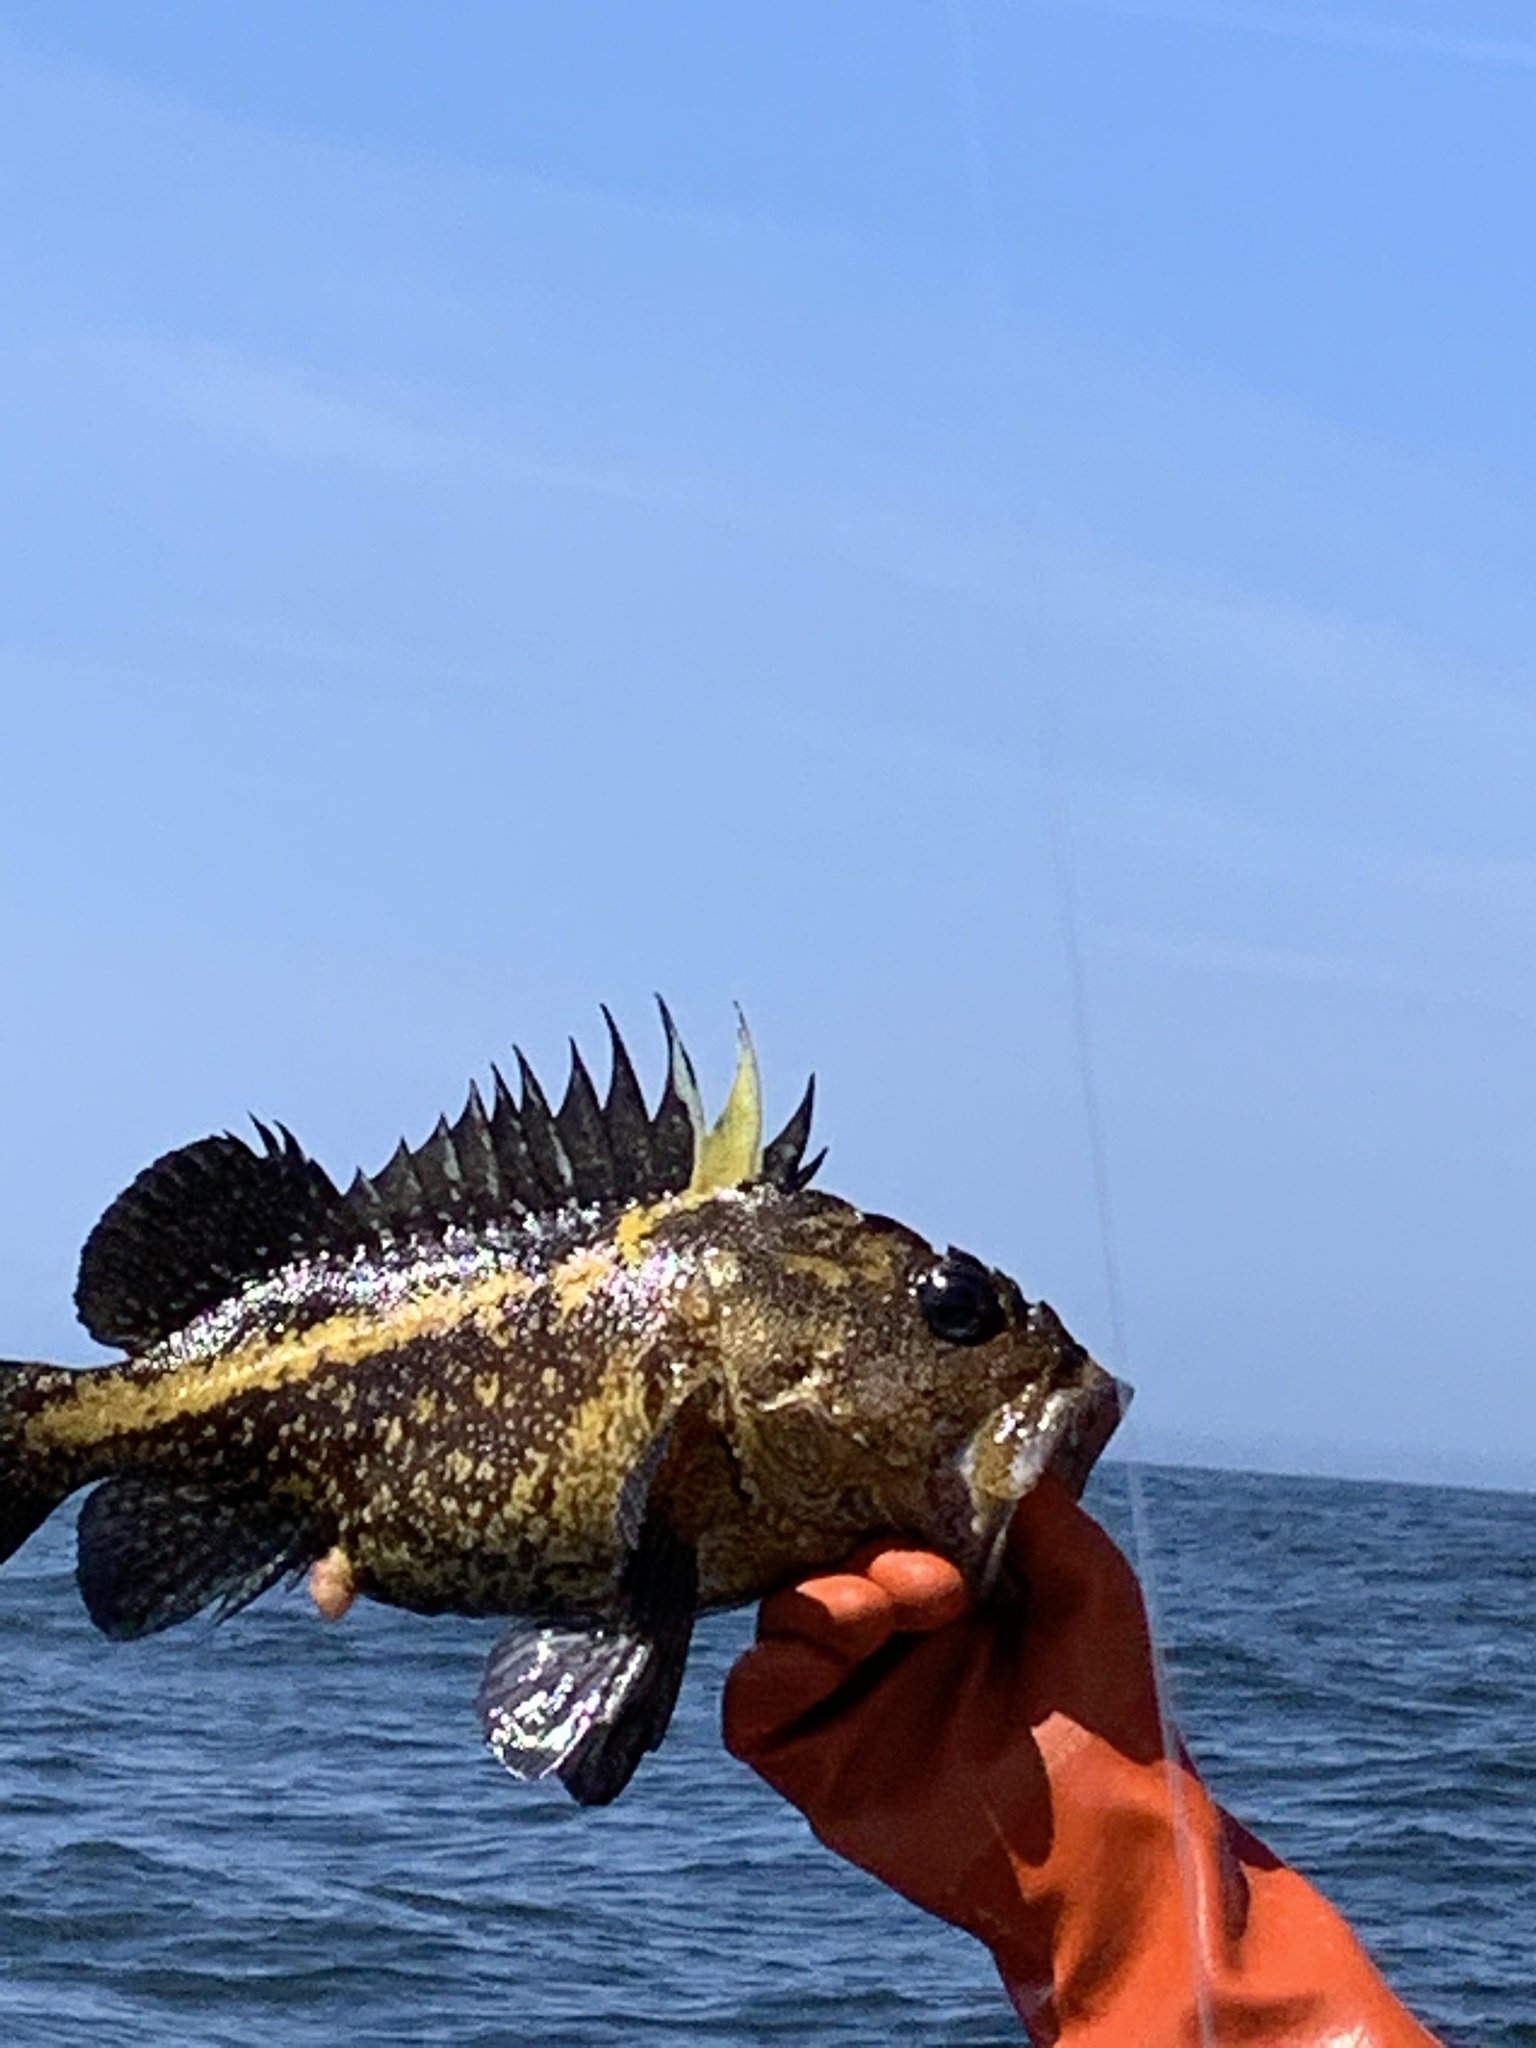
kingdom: Animalia
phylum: Chordata
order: Scorpaeniformes
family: Sebastidae
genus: Sebastes
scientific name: Sebastes nebulosus
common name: China rockfish
